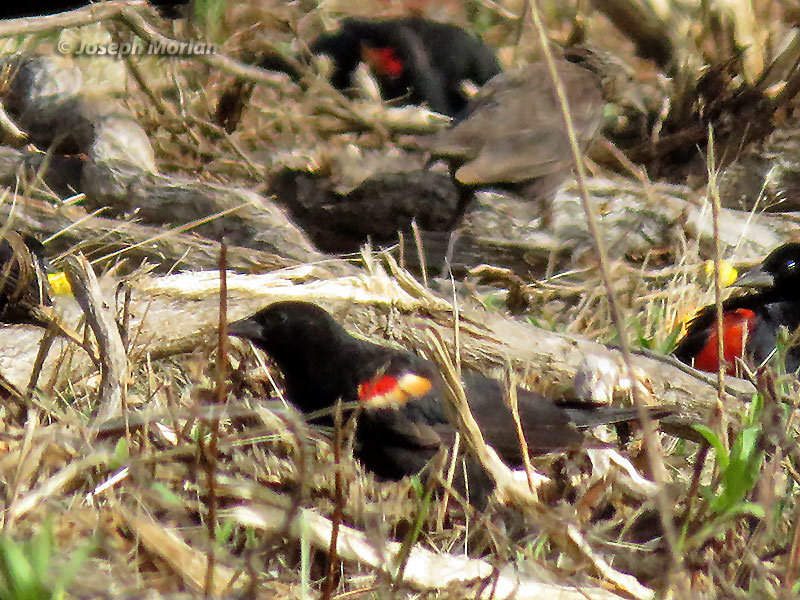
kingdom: Animalia
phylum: Chordata
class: Aves
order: Passeriformes
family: Icteridae
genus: Agelaius
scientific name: Agelaius phoeniceus
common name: Red-winged blackbird
